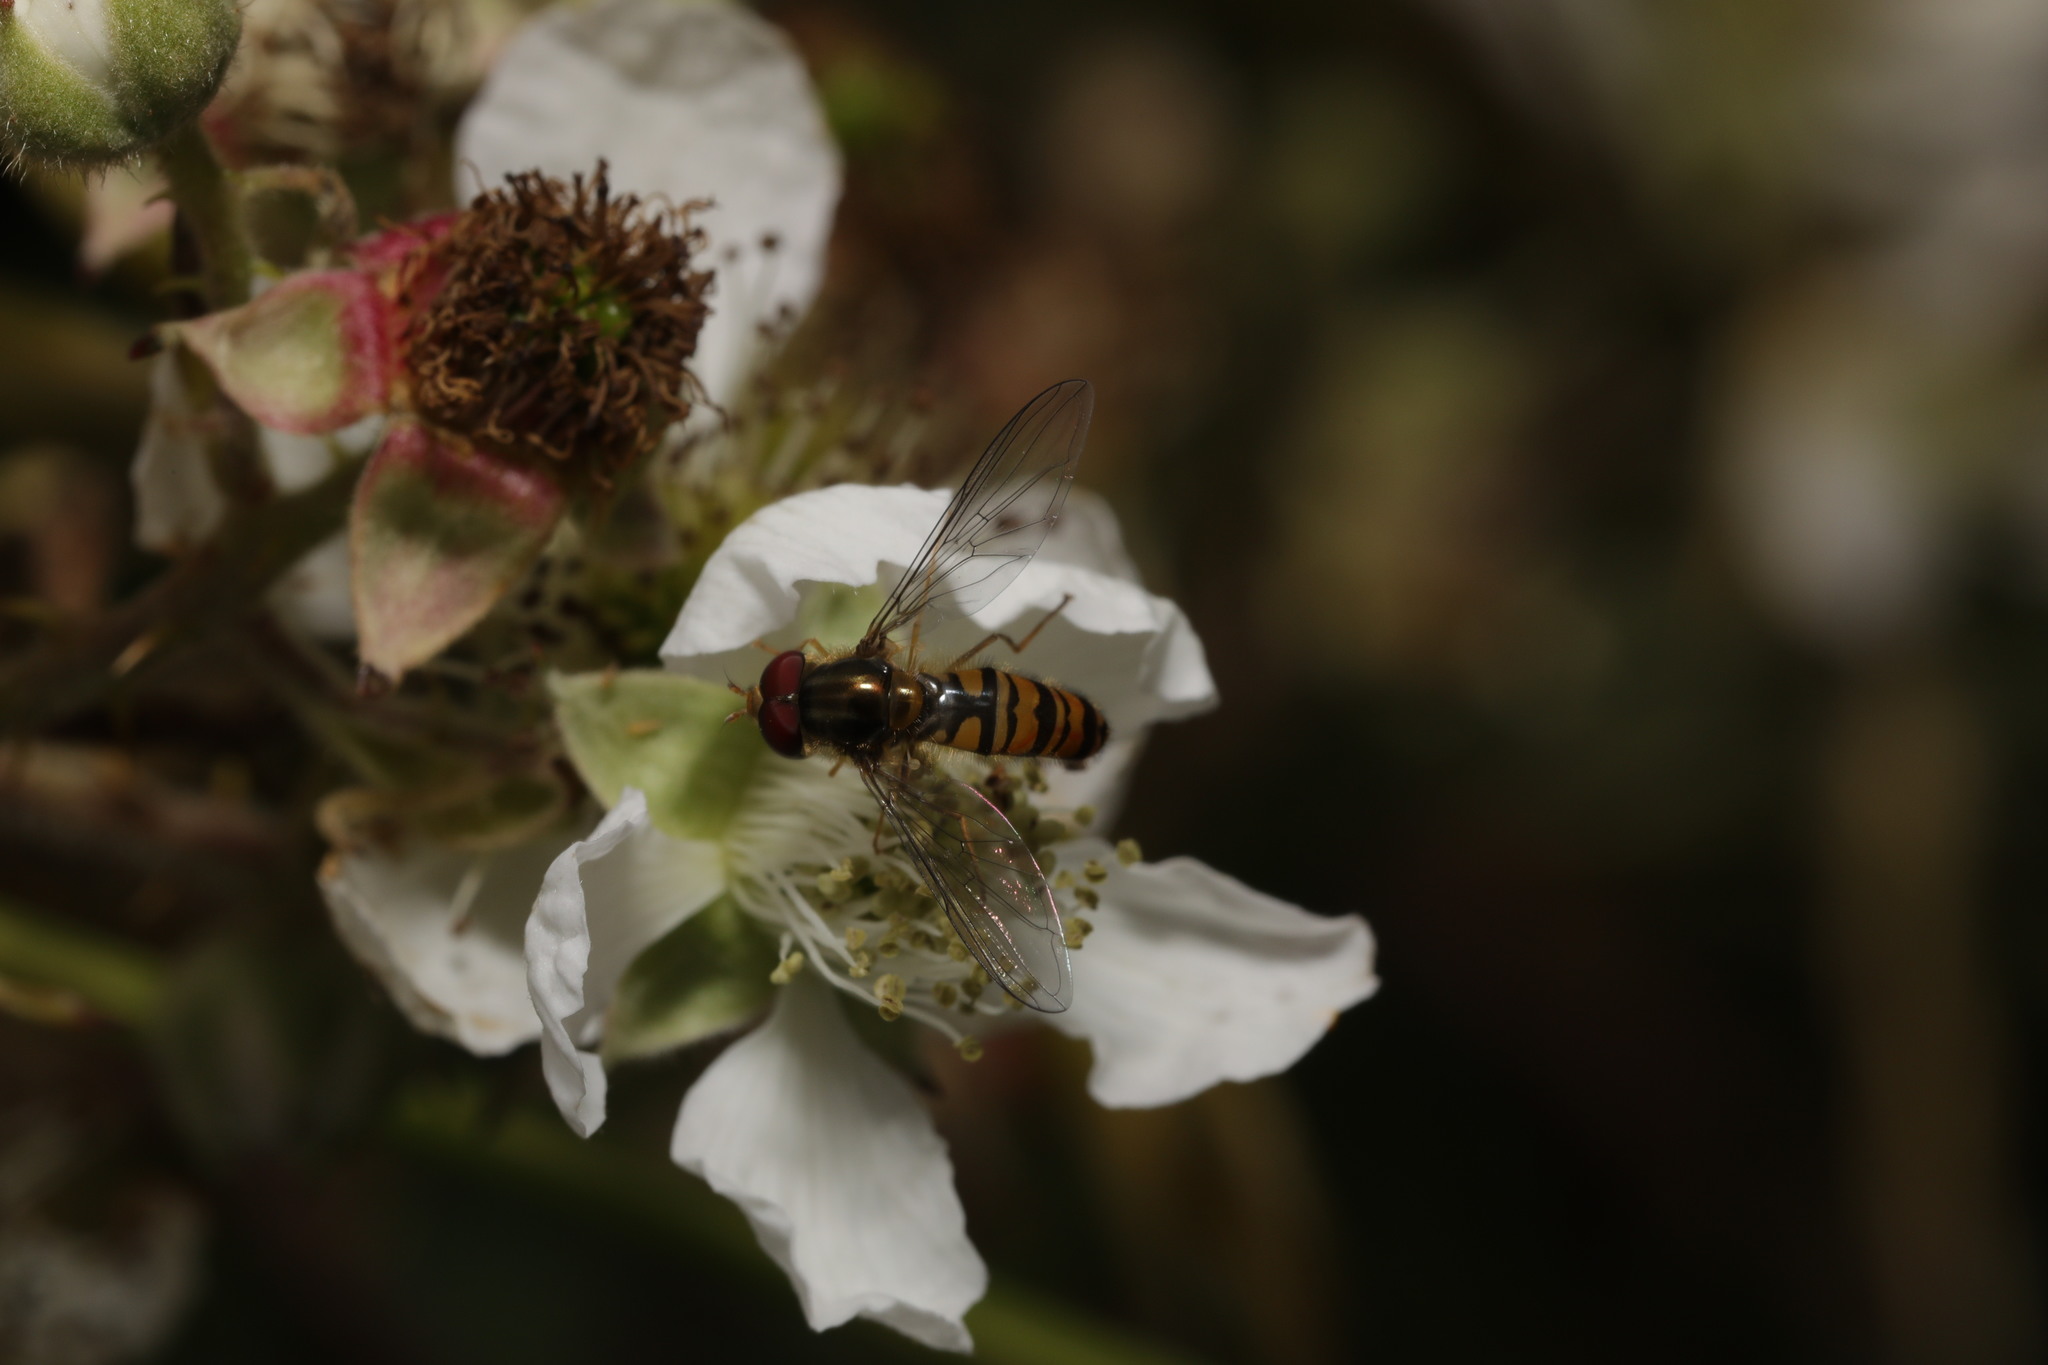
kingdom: Animalia
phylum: Arthropoda
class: Insecta
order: Diptera
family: Syrphidae
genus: Episyrphus
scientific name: Episyrphus balteatus
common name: Marmalade hoverfly
